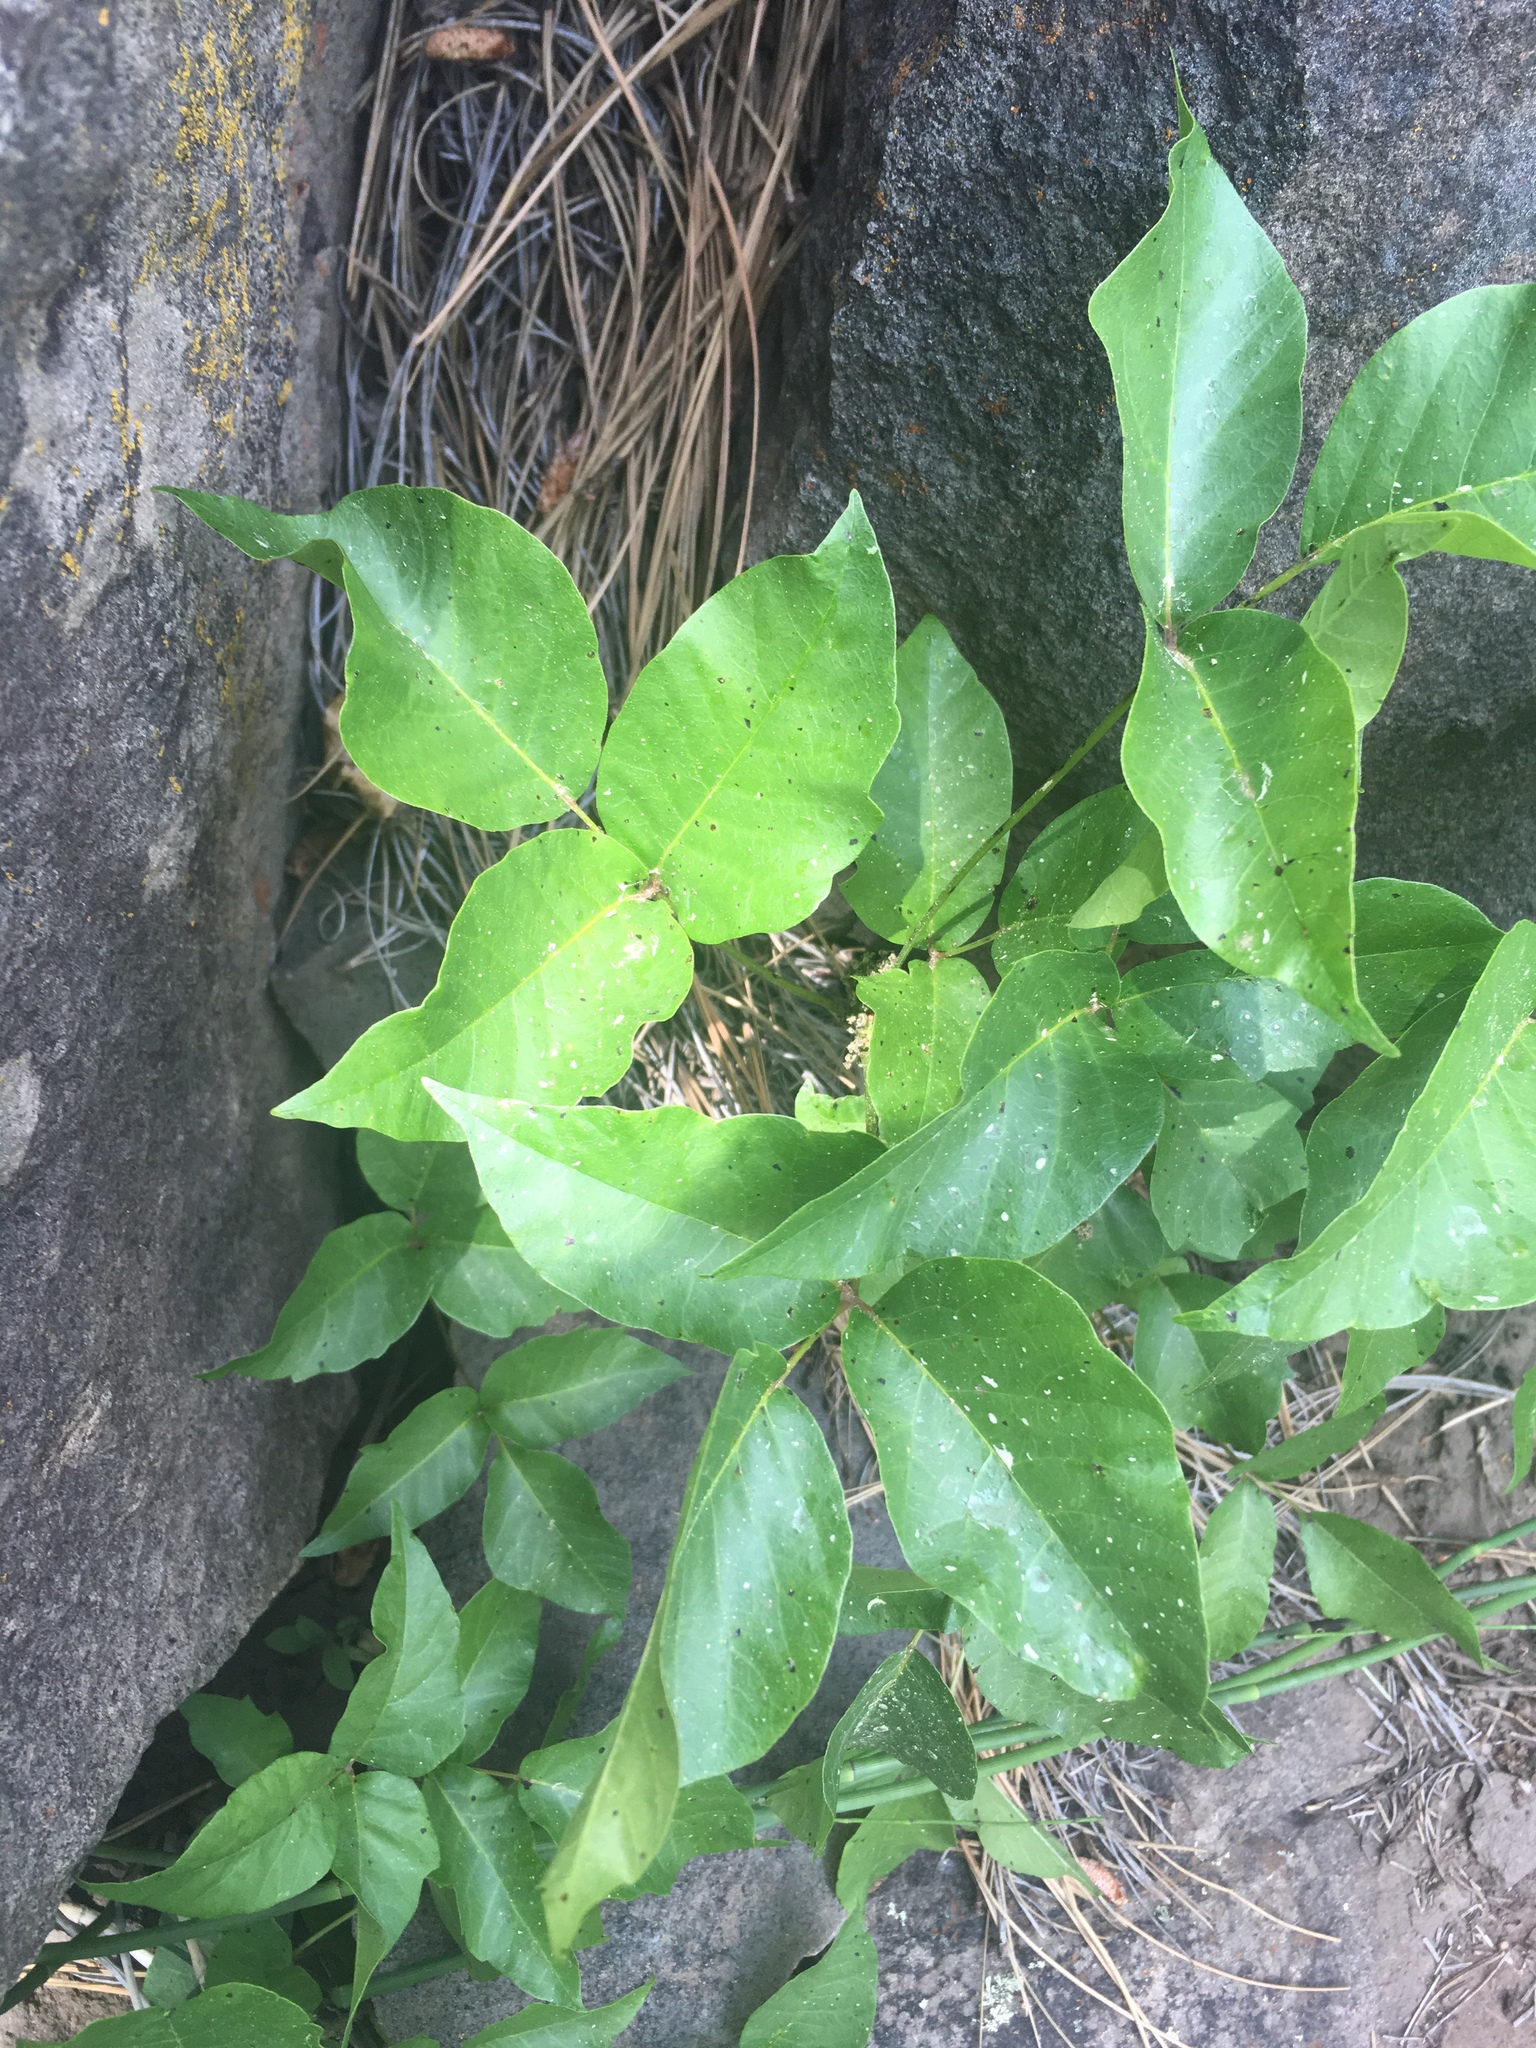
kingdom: Plantae
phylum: Tracheophyta
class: Magnoliopsida
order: Sapindales
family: Anacardiaceae
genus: Toxicodendron
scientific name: Toxicodendron rydbergii
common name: Rydberg's poison-ivy
